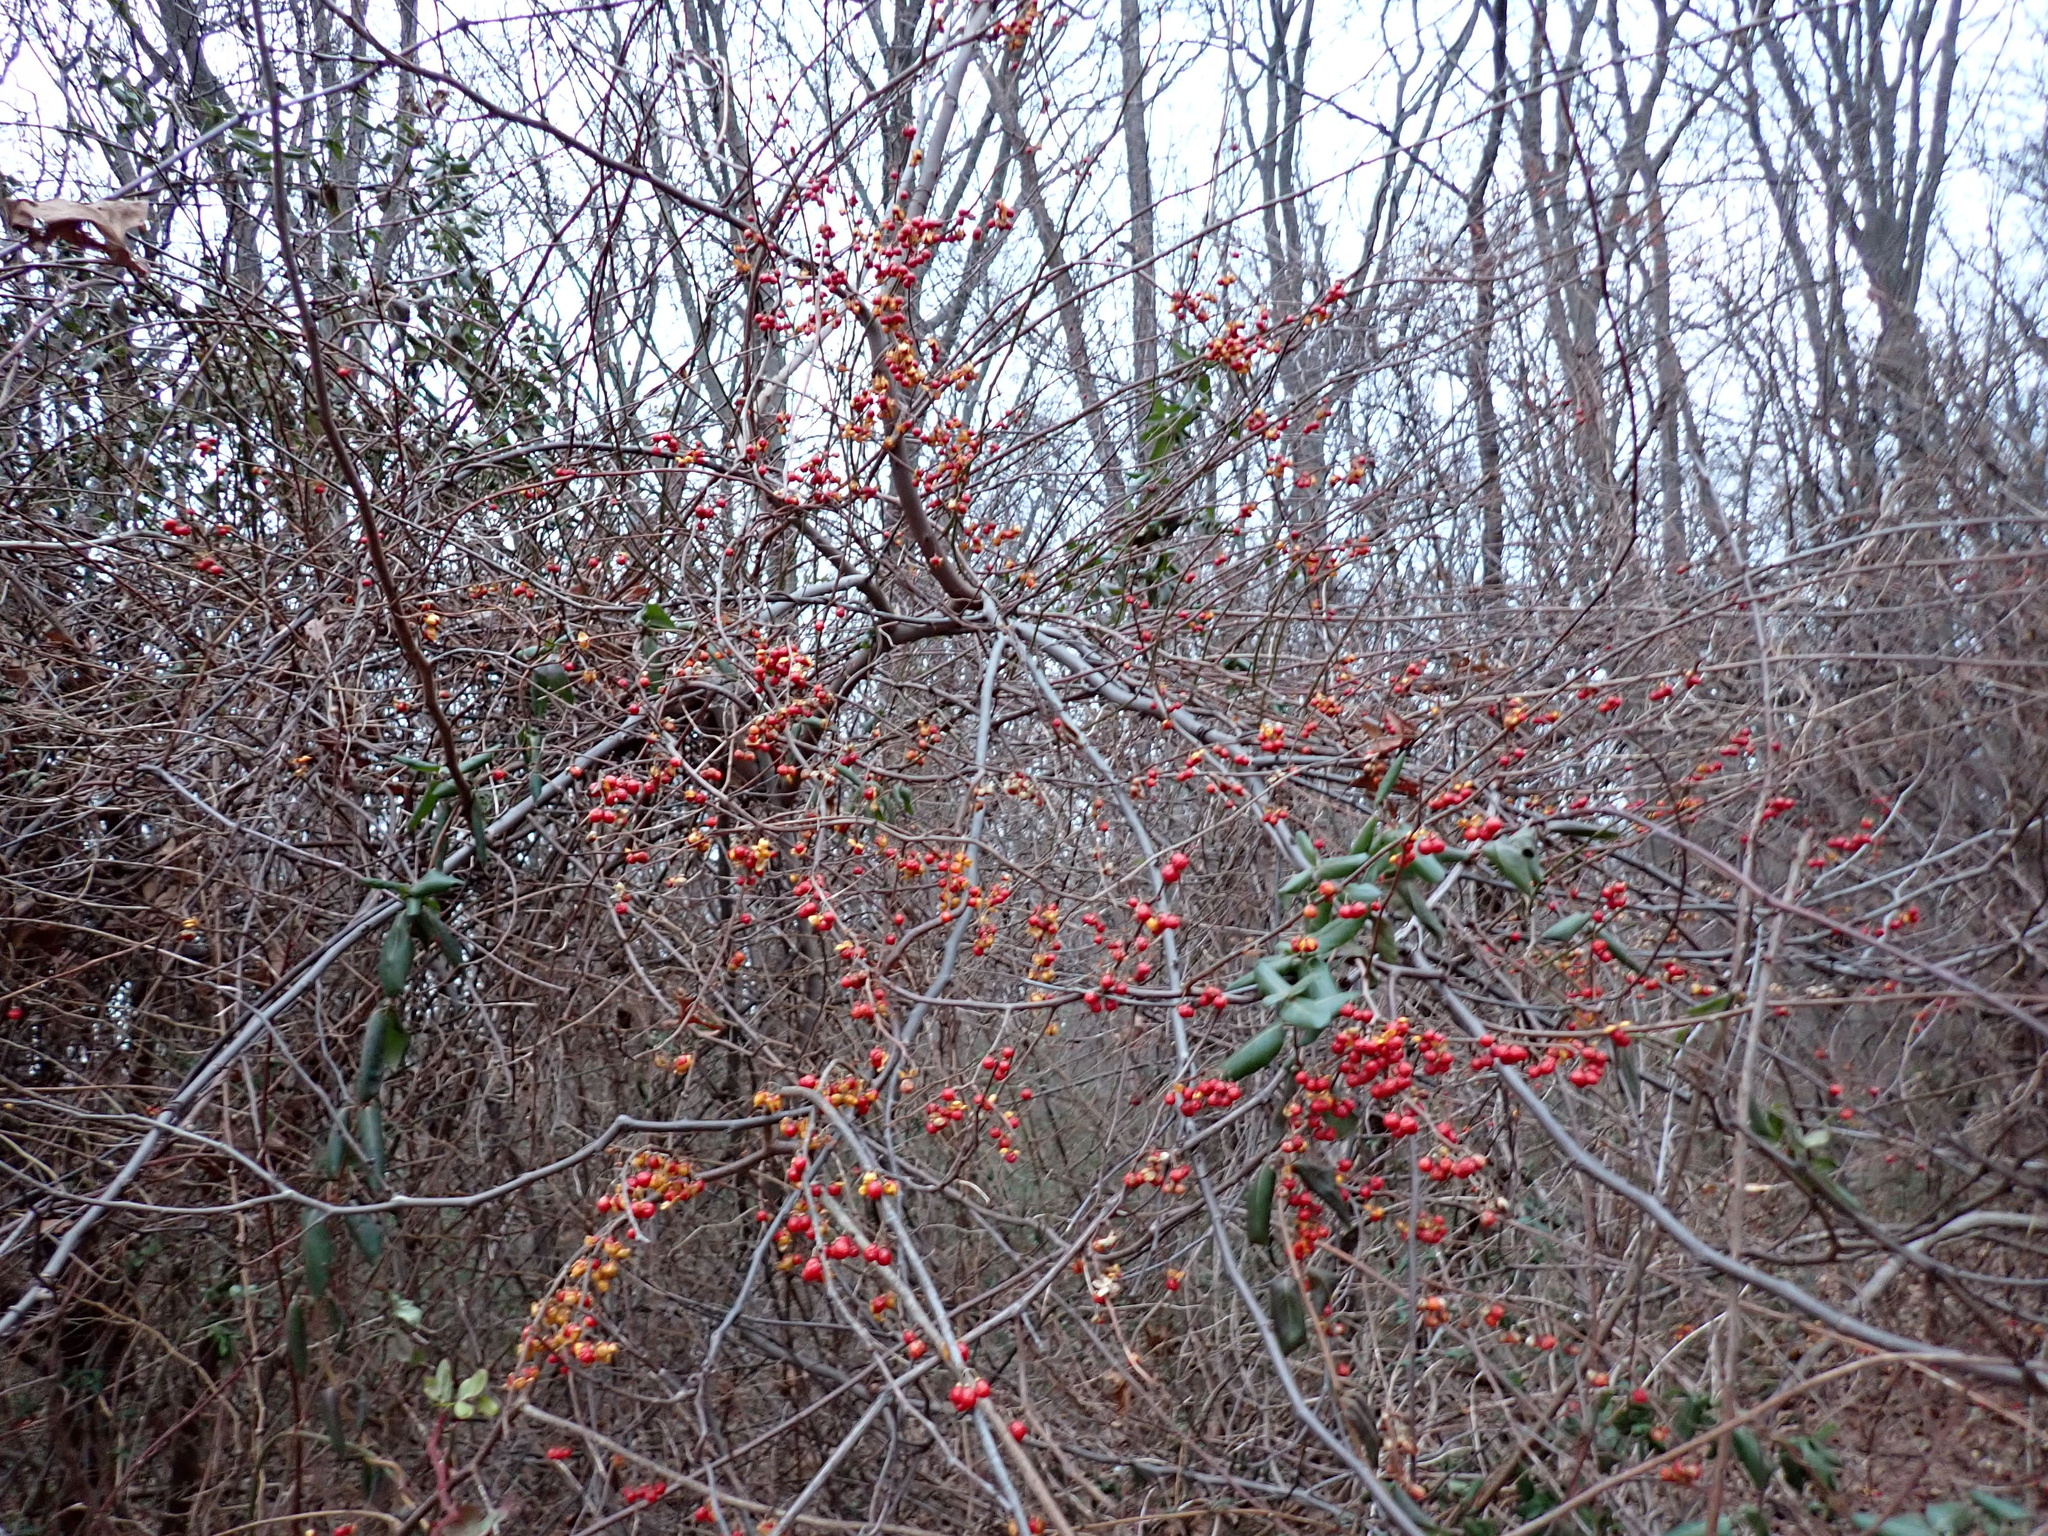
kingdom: Plantae
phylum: Tracheophyta
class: Magnoliopsida
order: Celastrales
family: Celastraceae
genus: Celastrus
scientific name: Celastrus orbiculatus
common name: Oriental bittersweet
